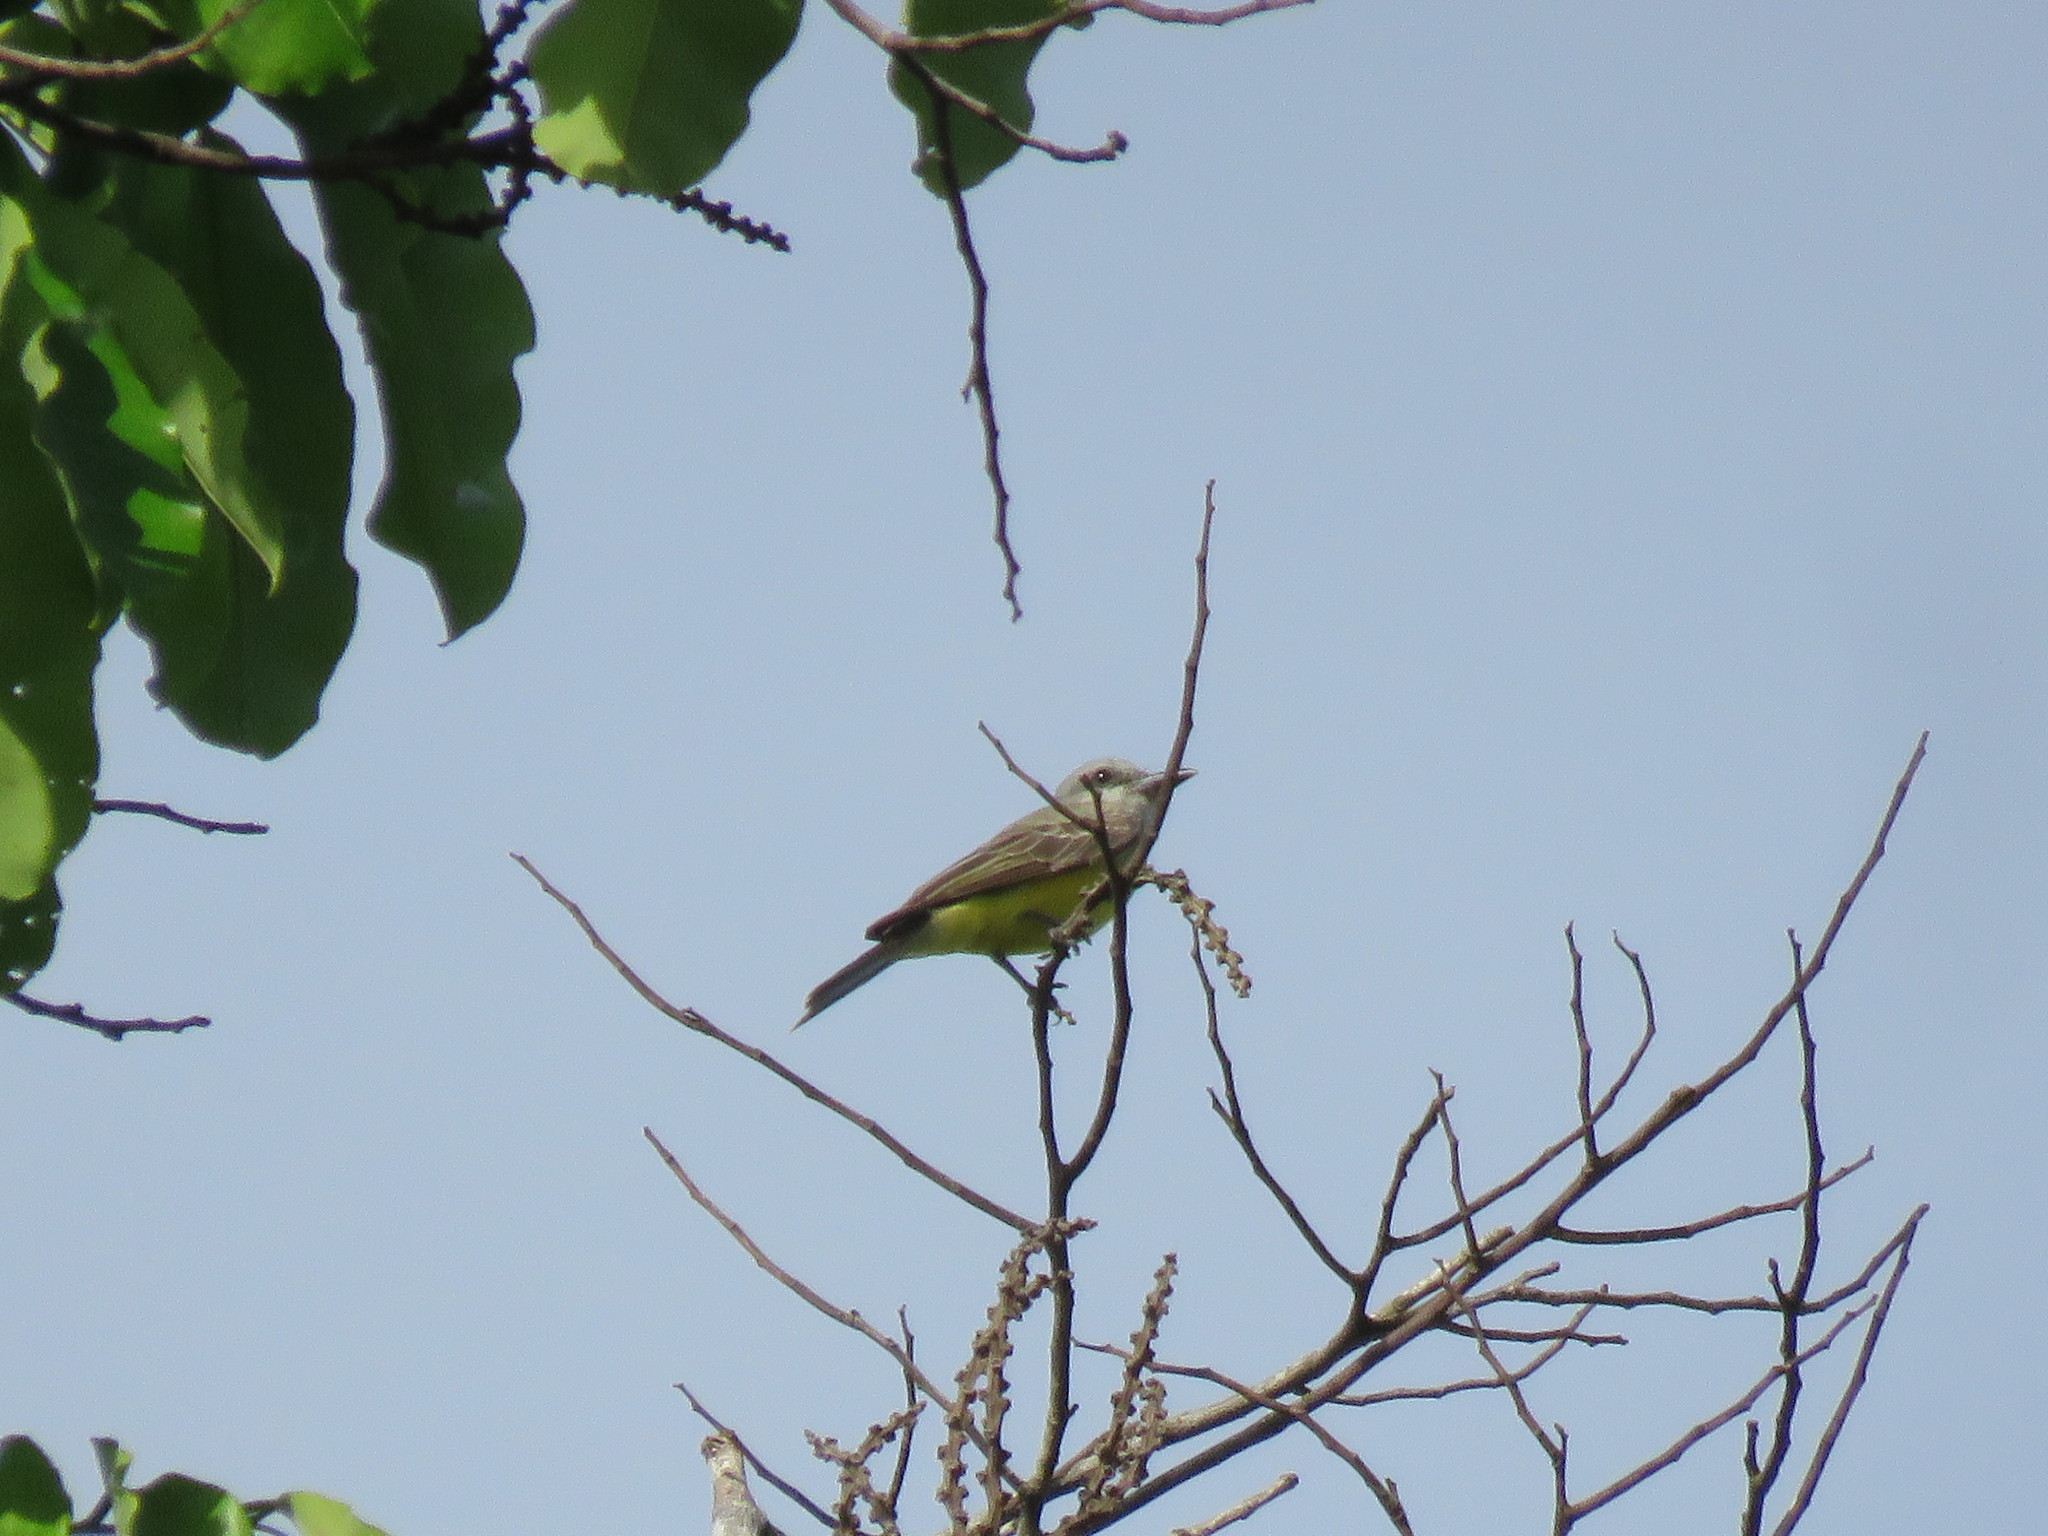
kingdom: Animalia
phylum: Chordata
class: Aves
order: Passeriformes
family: Tyrannidae
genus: Tyrannus
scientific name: Tyrannus melancholicus
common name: Tropical kingbird
